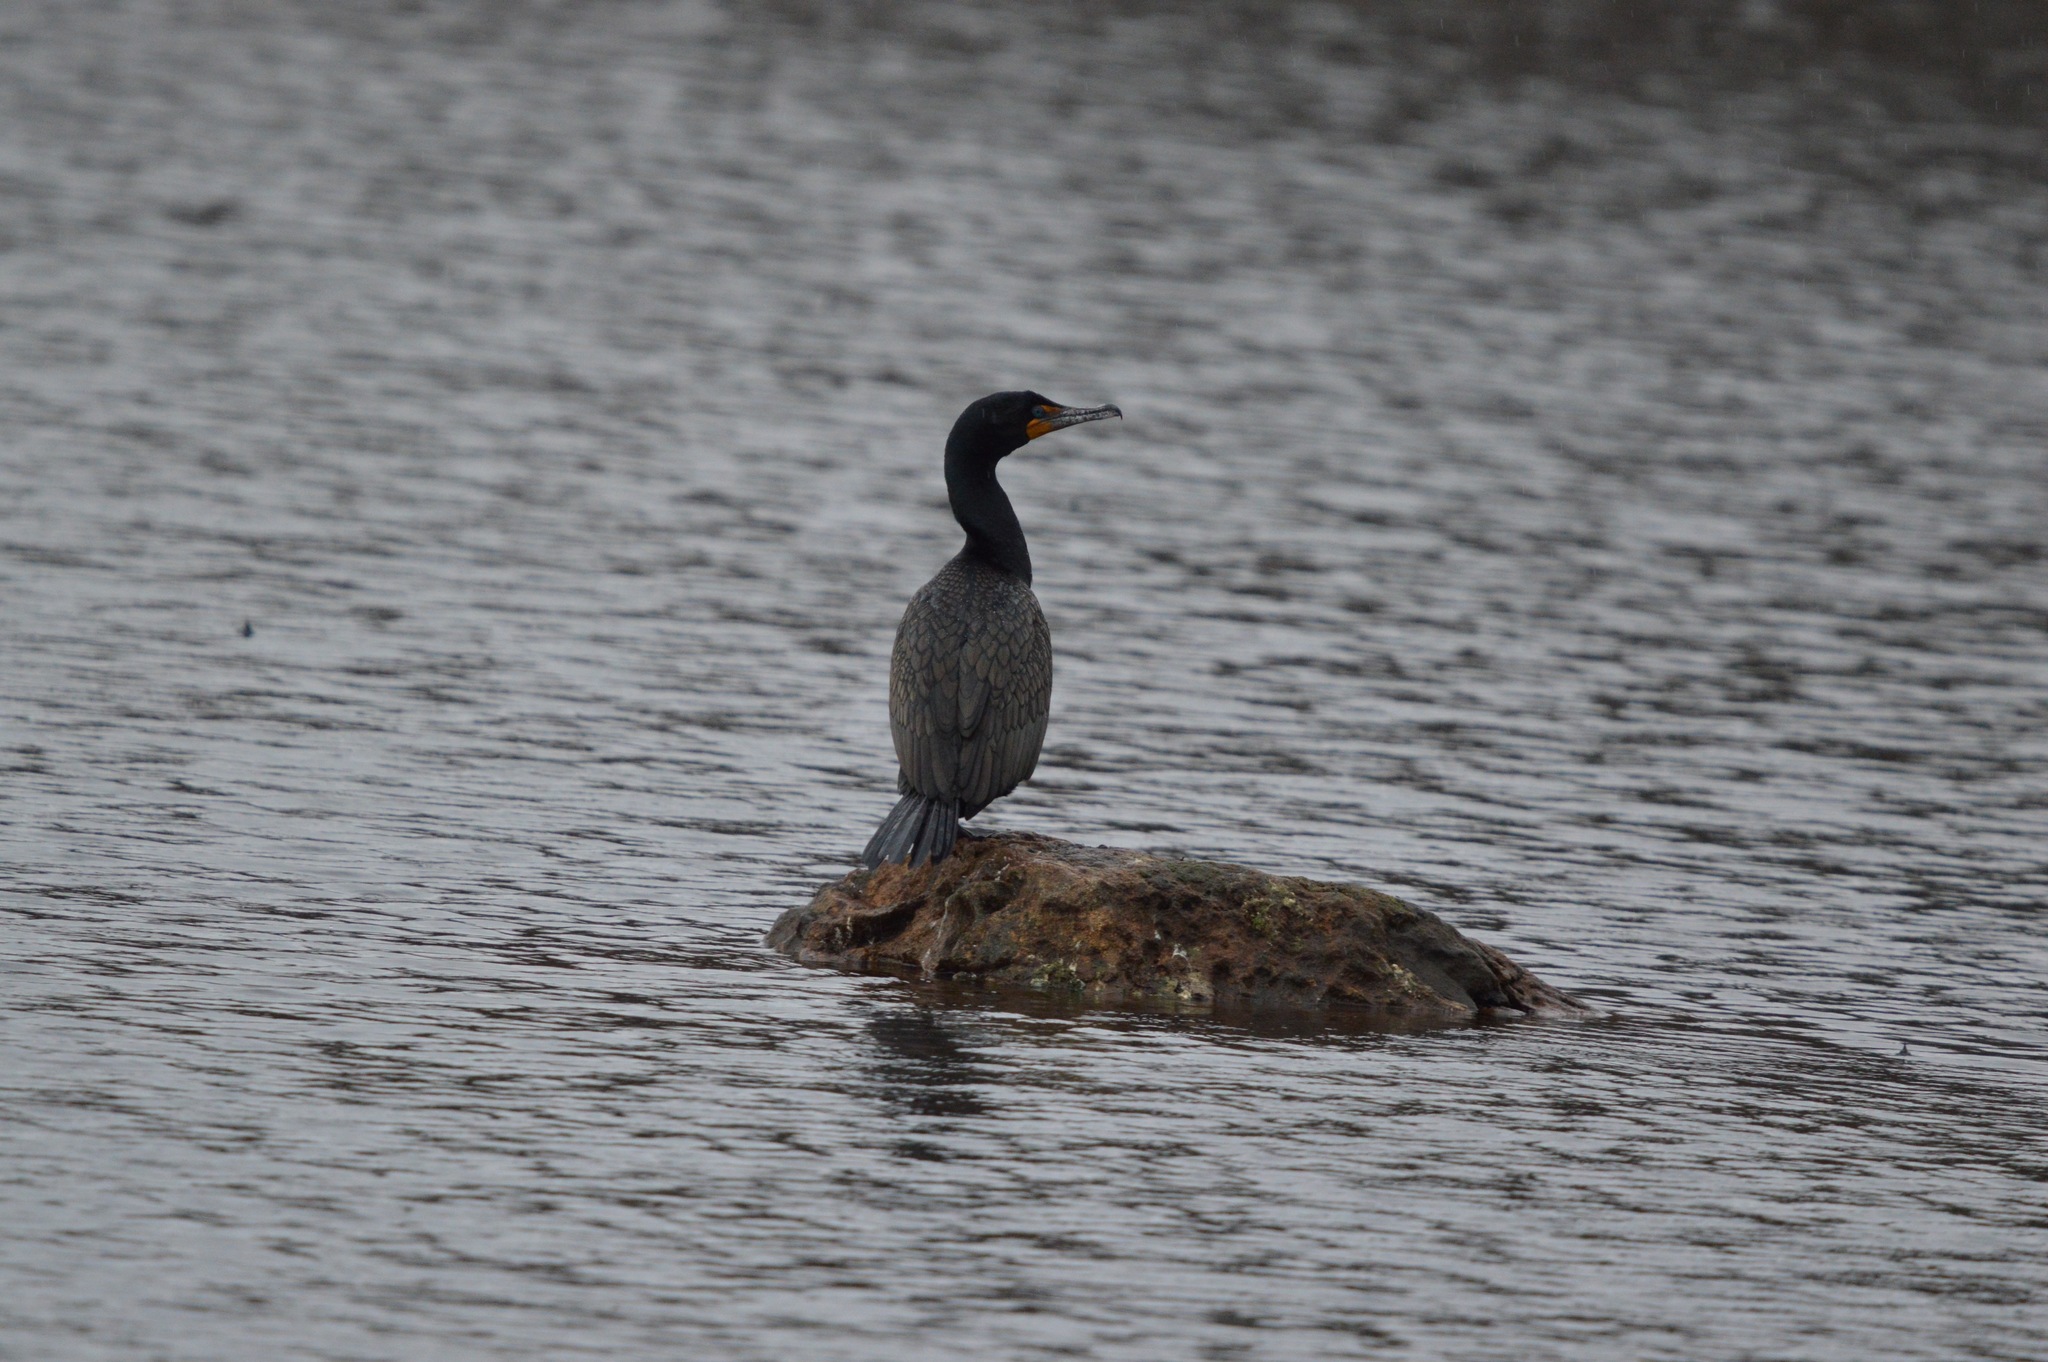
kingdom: Animalia
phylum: Chordata
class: Aves
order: Suliformes
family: Phalacrocoracidae
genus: Phalacrocorax
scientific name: Phalacrocorax auritus
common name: Double-crested cormorant
